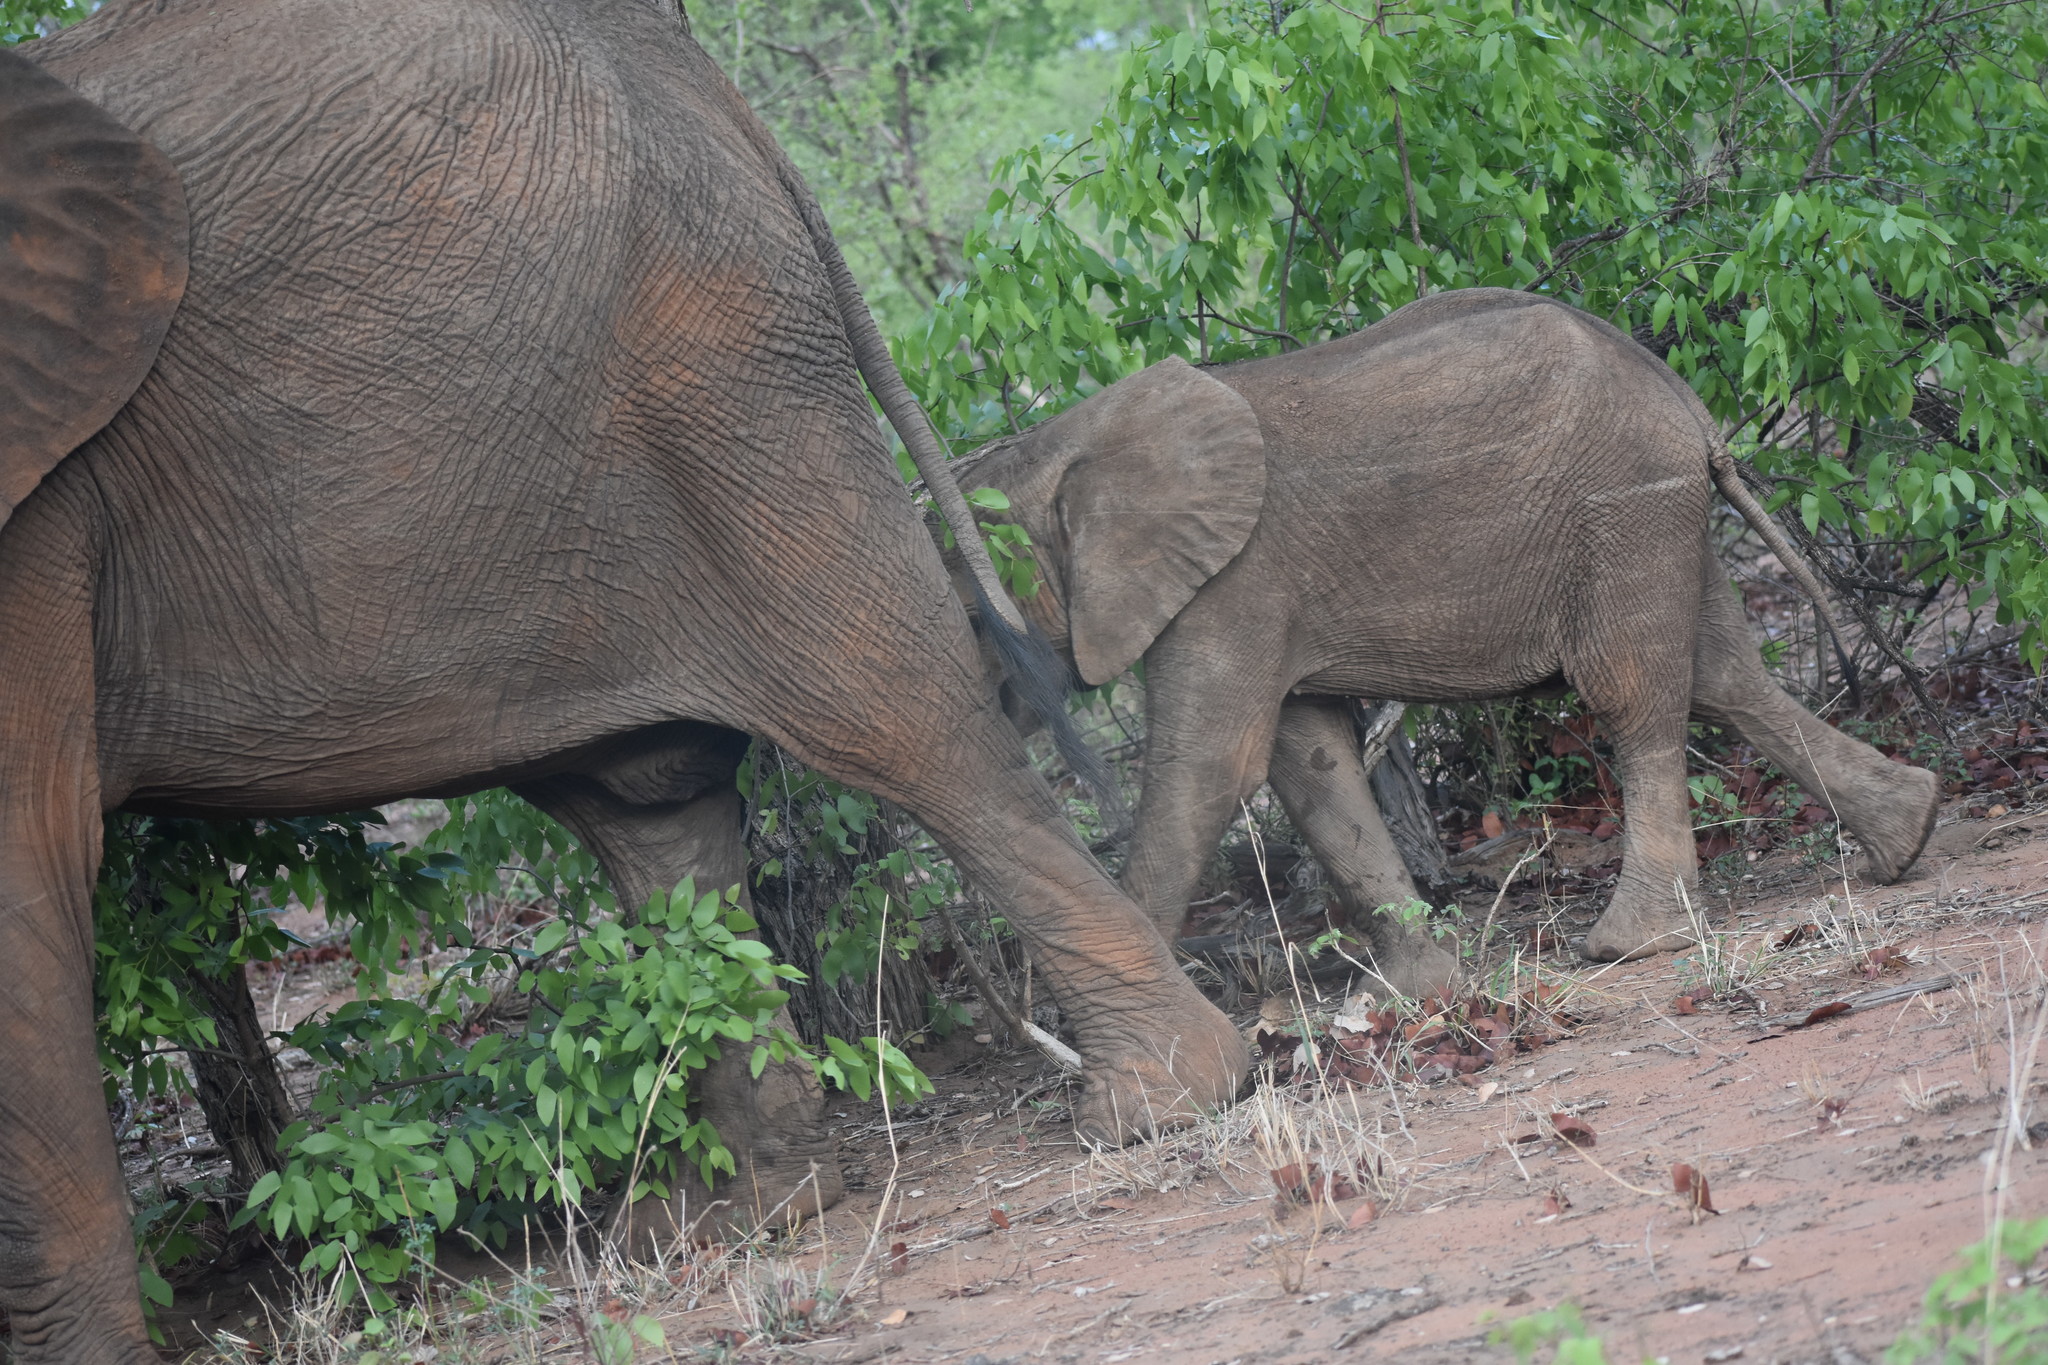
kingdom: Animalia
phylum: Chordata
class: Mammalia
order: Proboscidea
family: Elephantidae
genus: Loxodonta
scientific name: Loxodonta africana
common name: African elephant
